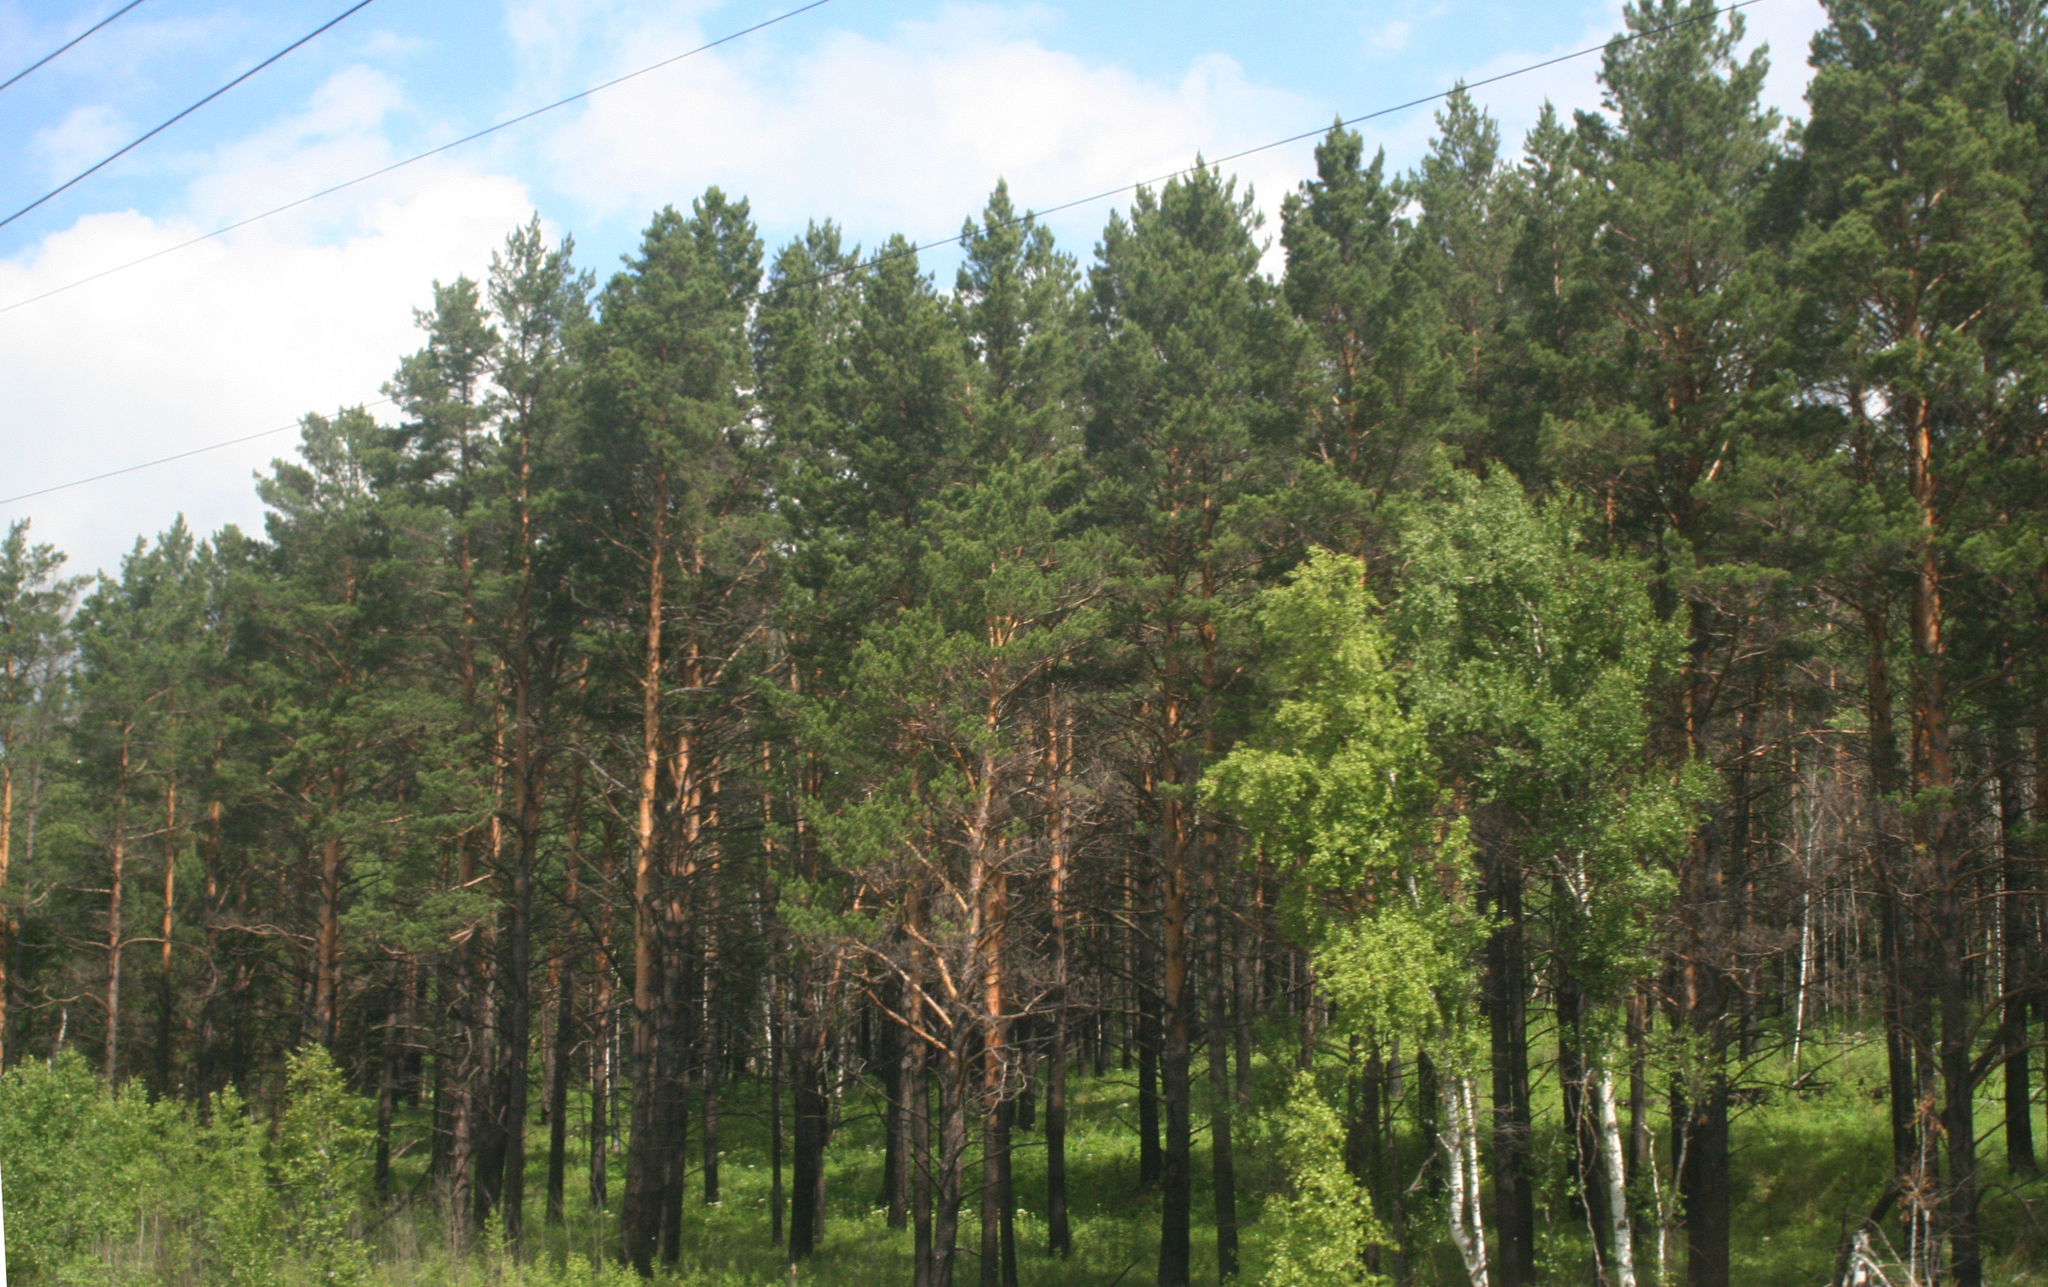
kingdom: Plantae
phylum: Tracheophyta
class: Pinopsida
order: Pinales
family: Pinaceae
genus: Pinus
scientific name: Pinus sylvestris
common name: Scots pine
